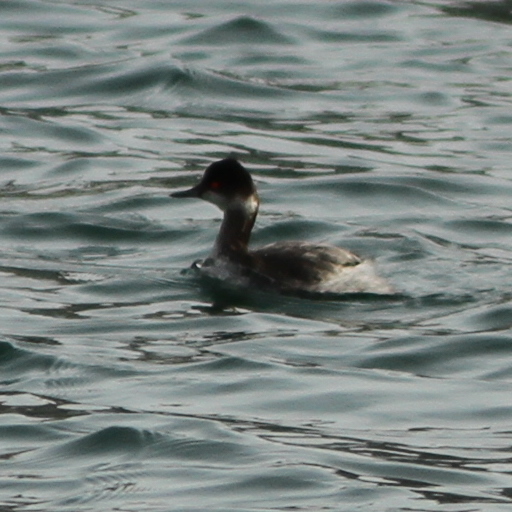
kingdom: Animalia
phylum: Chordata
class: Aves
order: Podicipediformes
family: Podicipedidae
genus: Podiceps
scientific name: Podiceps nigricollis
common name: Black-necked grebe
